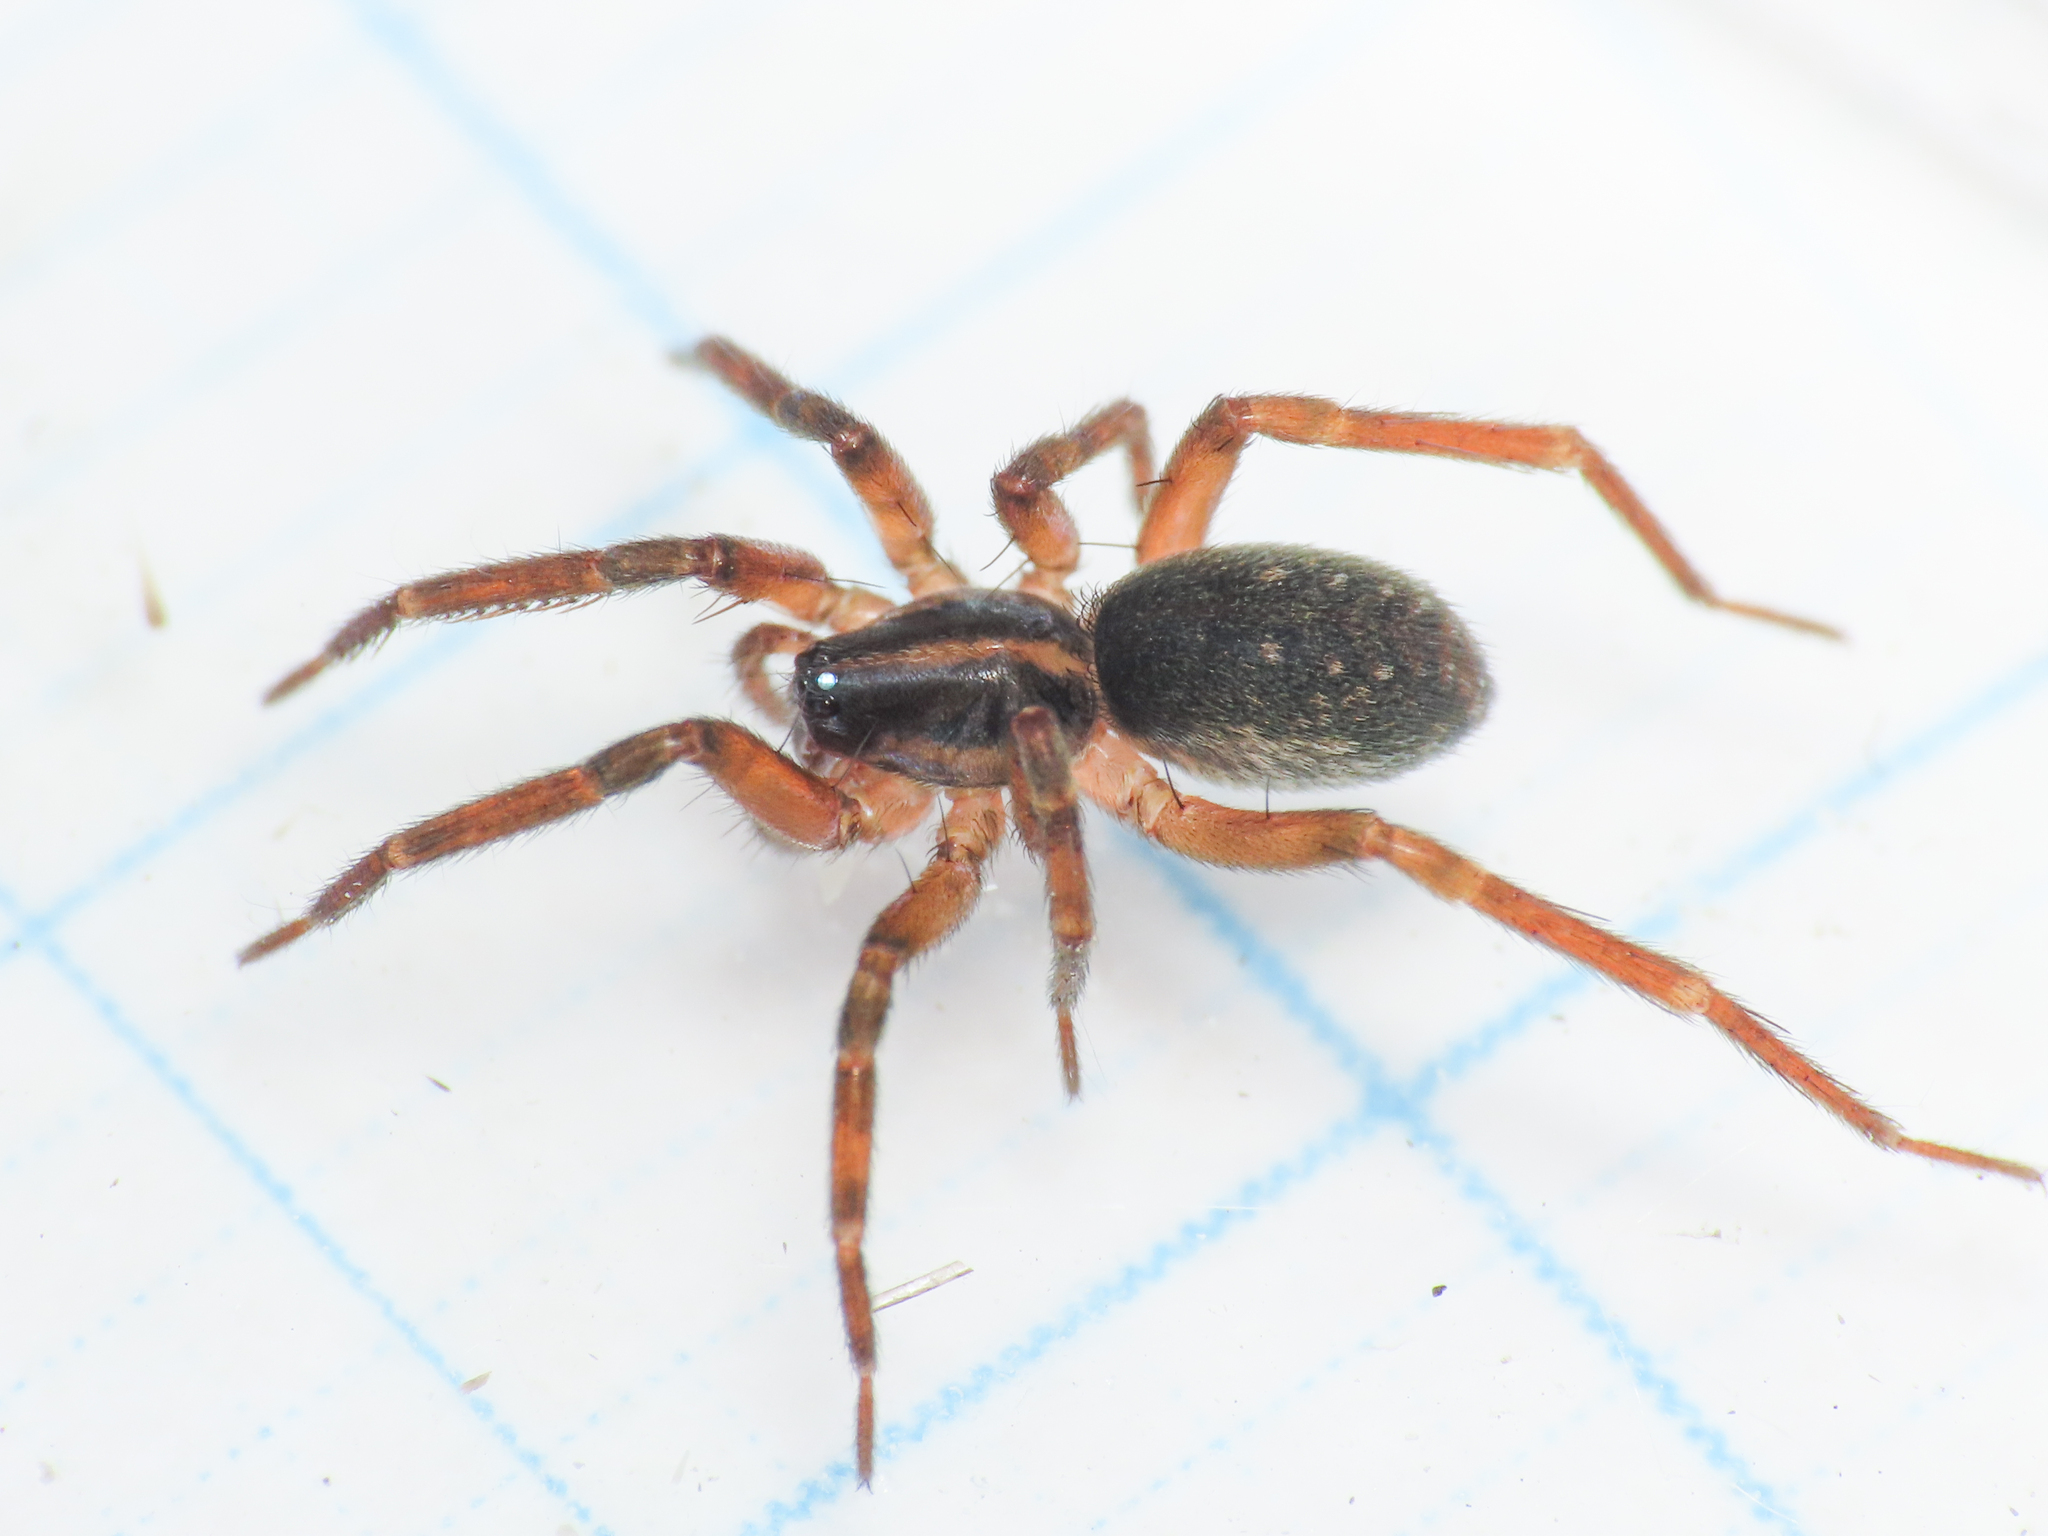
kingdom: Animalia
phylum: Arthropoda
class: Arachnida
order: Araneae
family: Liocranidae
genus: Scotina
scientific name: Scotina celans
